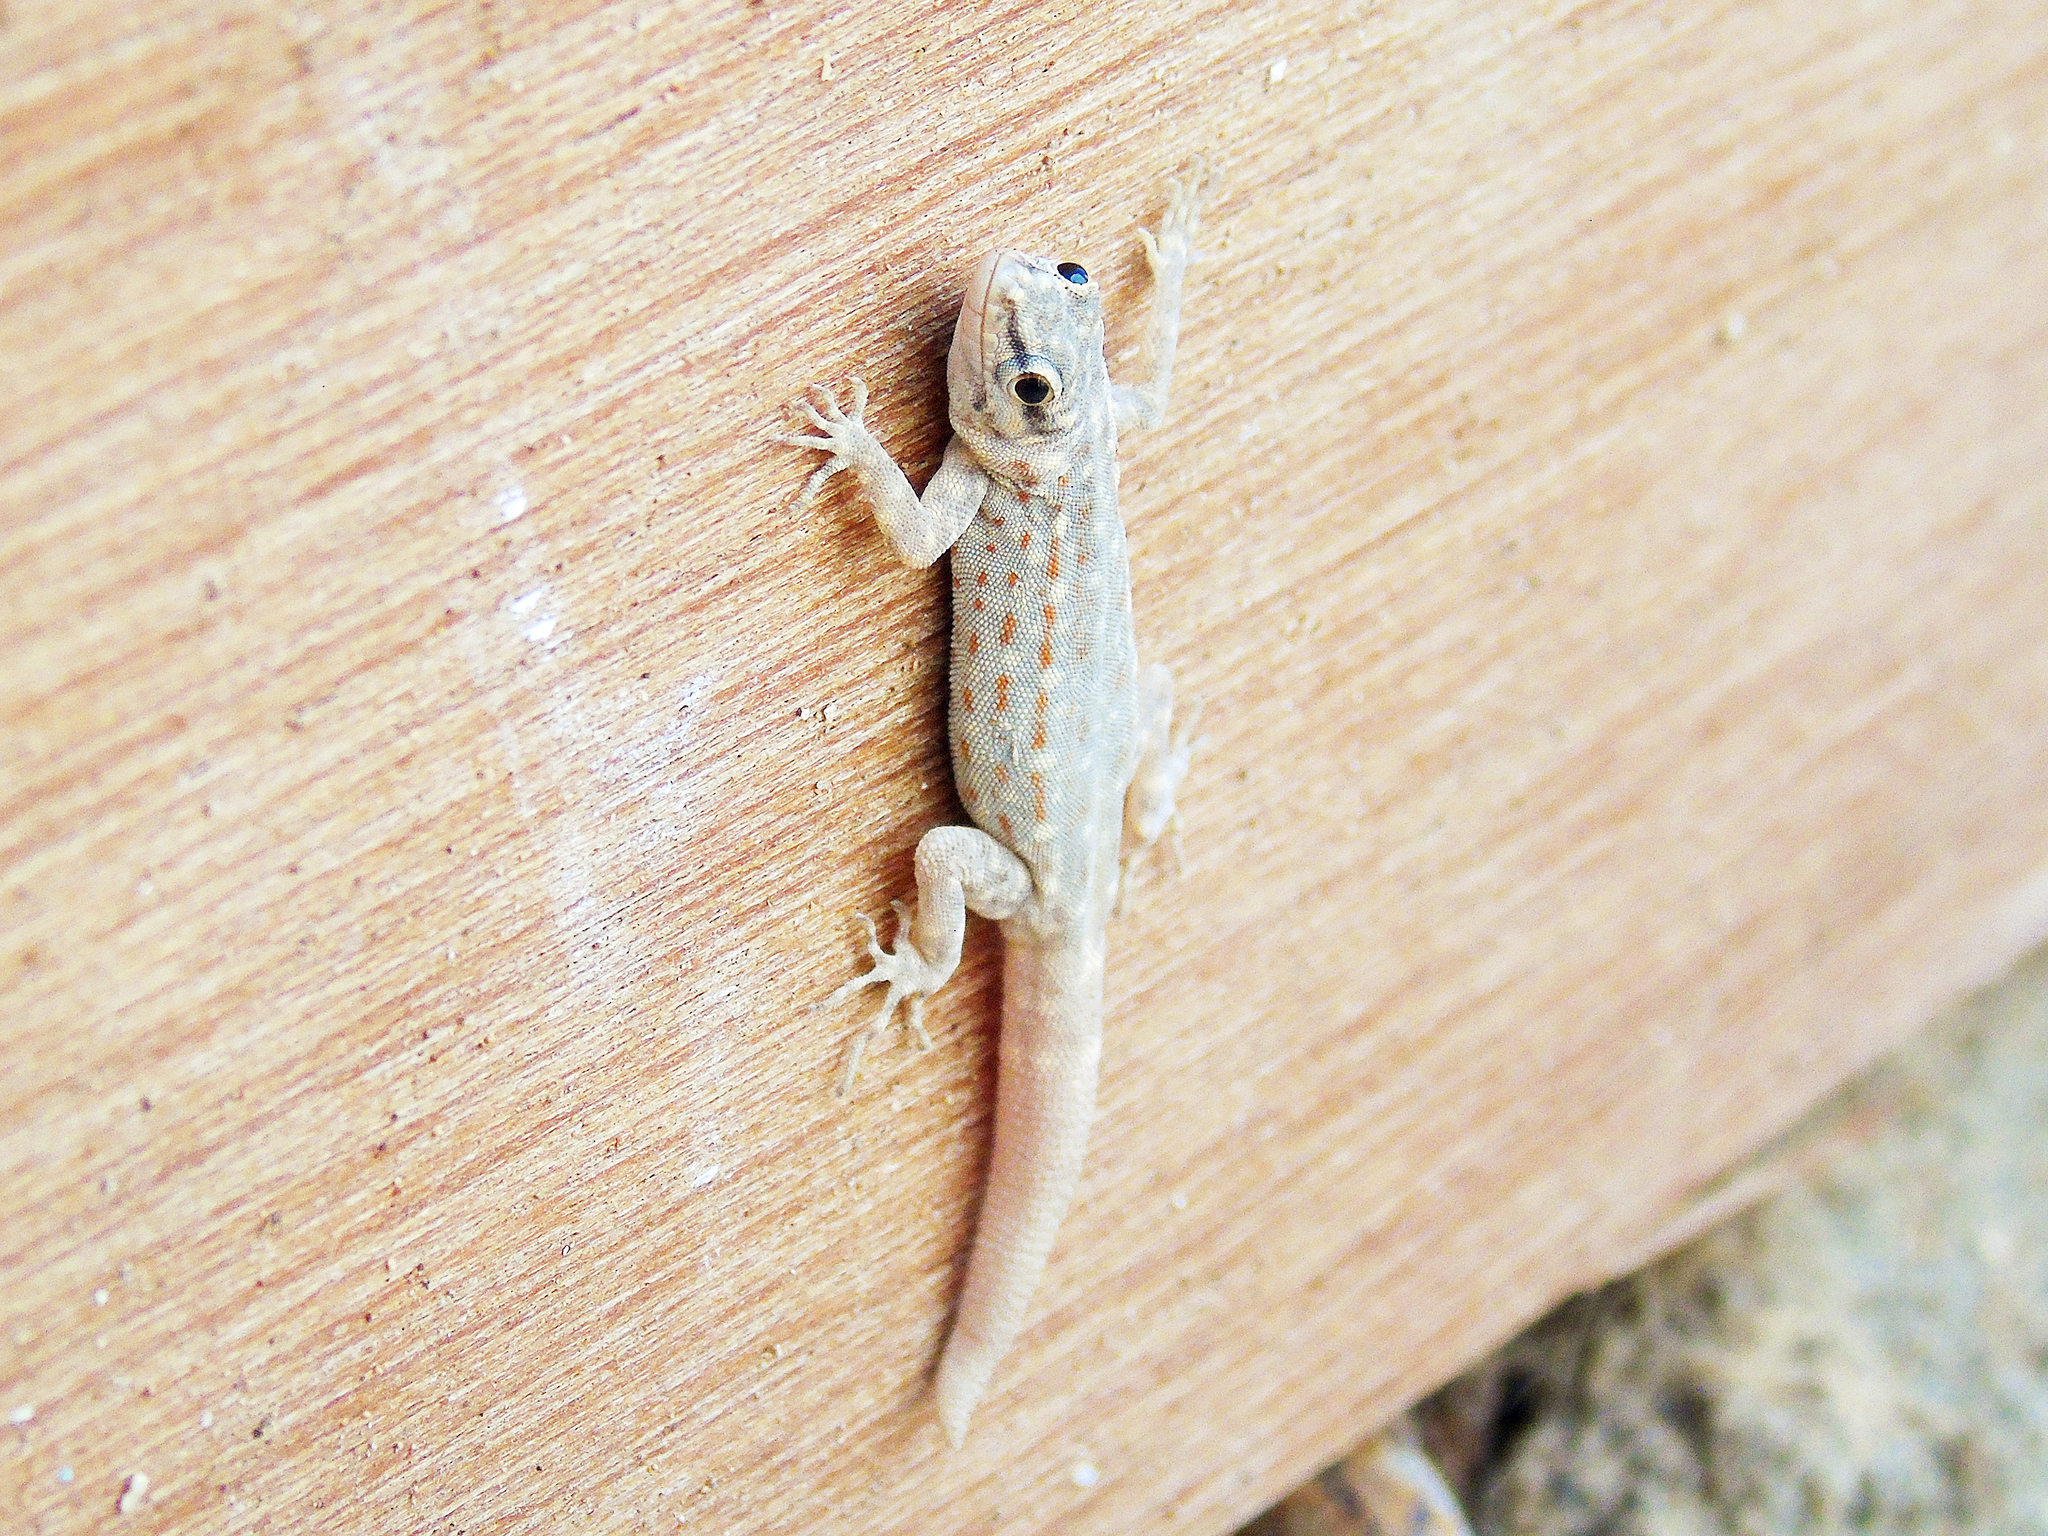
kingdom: Animalia
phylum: Chordata
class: Squamata
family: Sphaerodactylidae
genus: Pristurus
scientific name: Pristurus rupestris
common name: Blanford’s semaphore gecko
